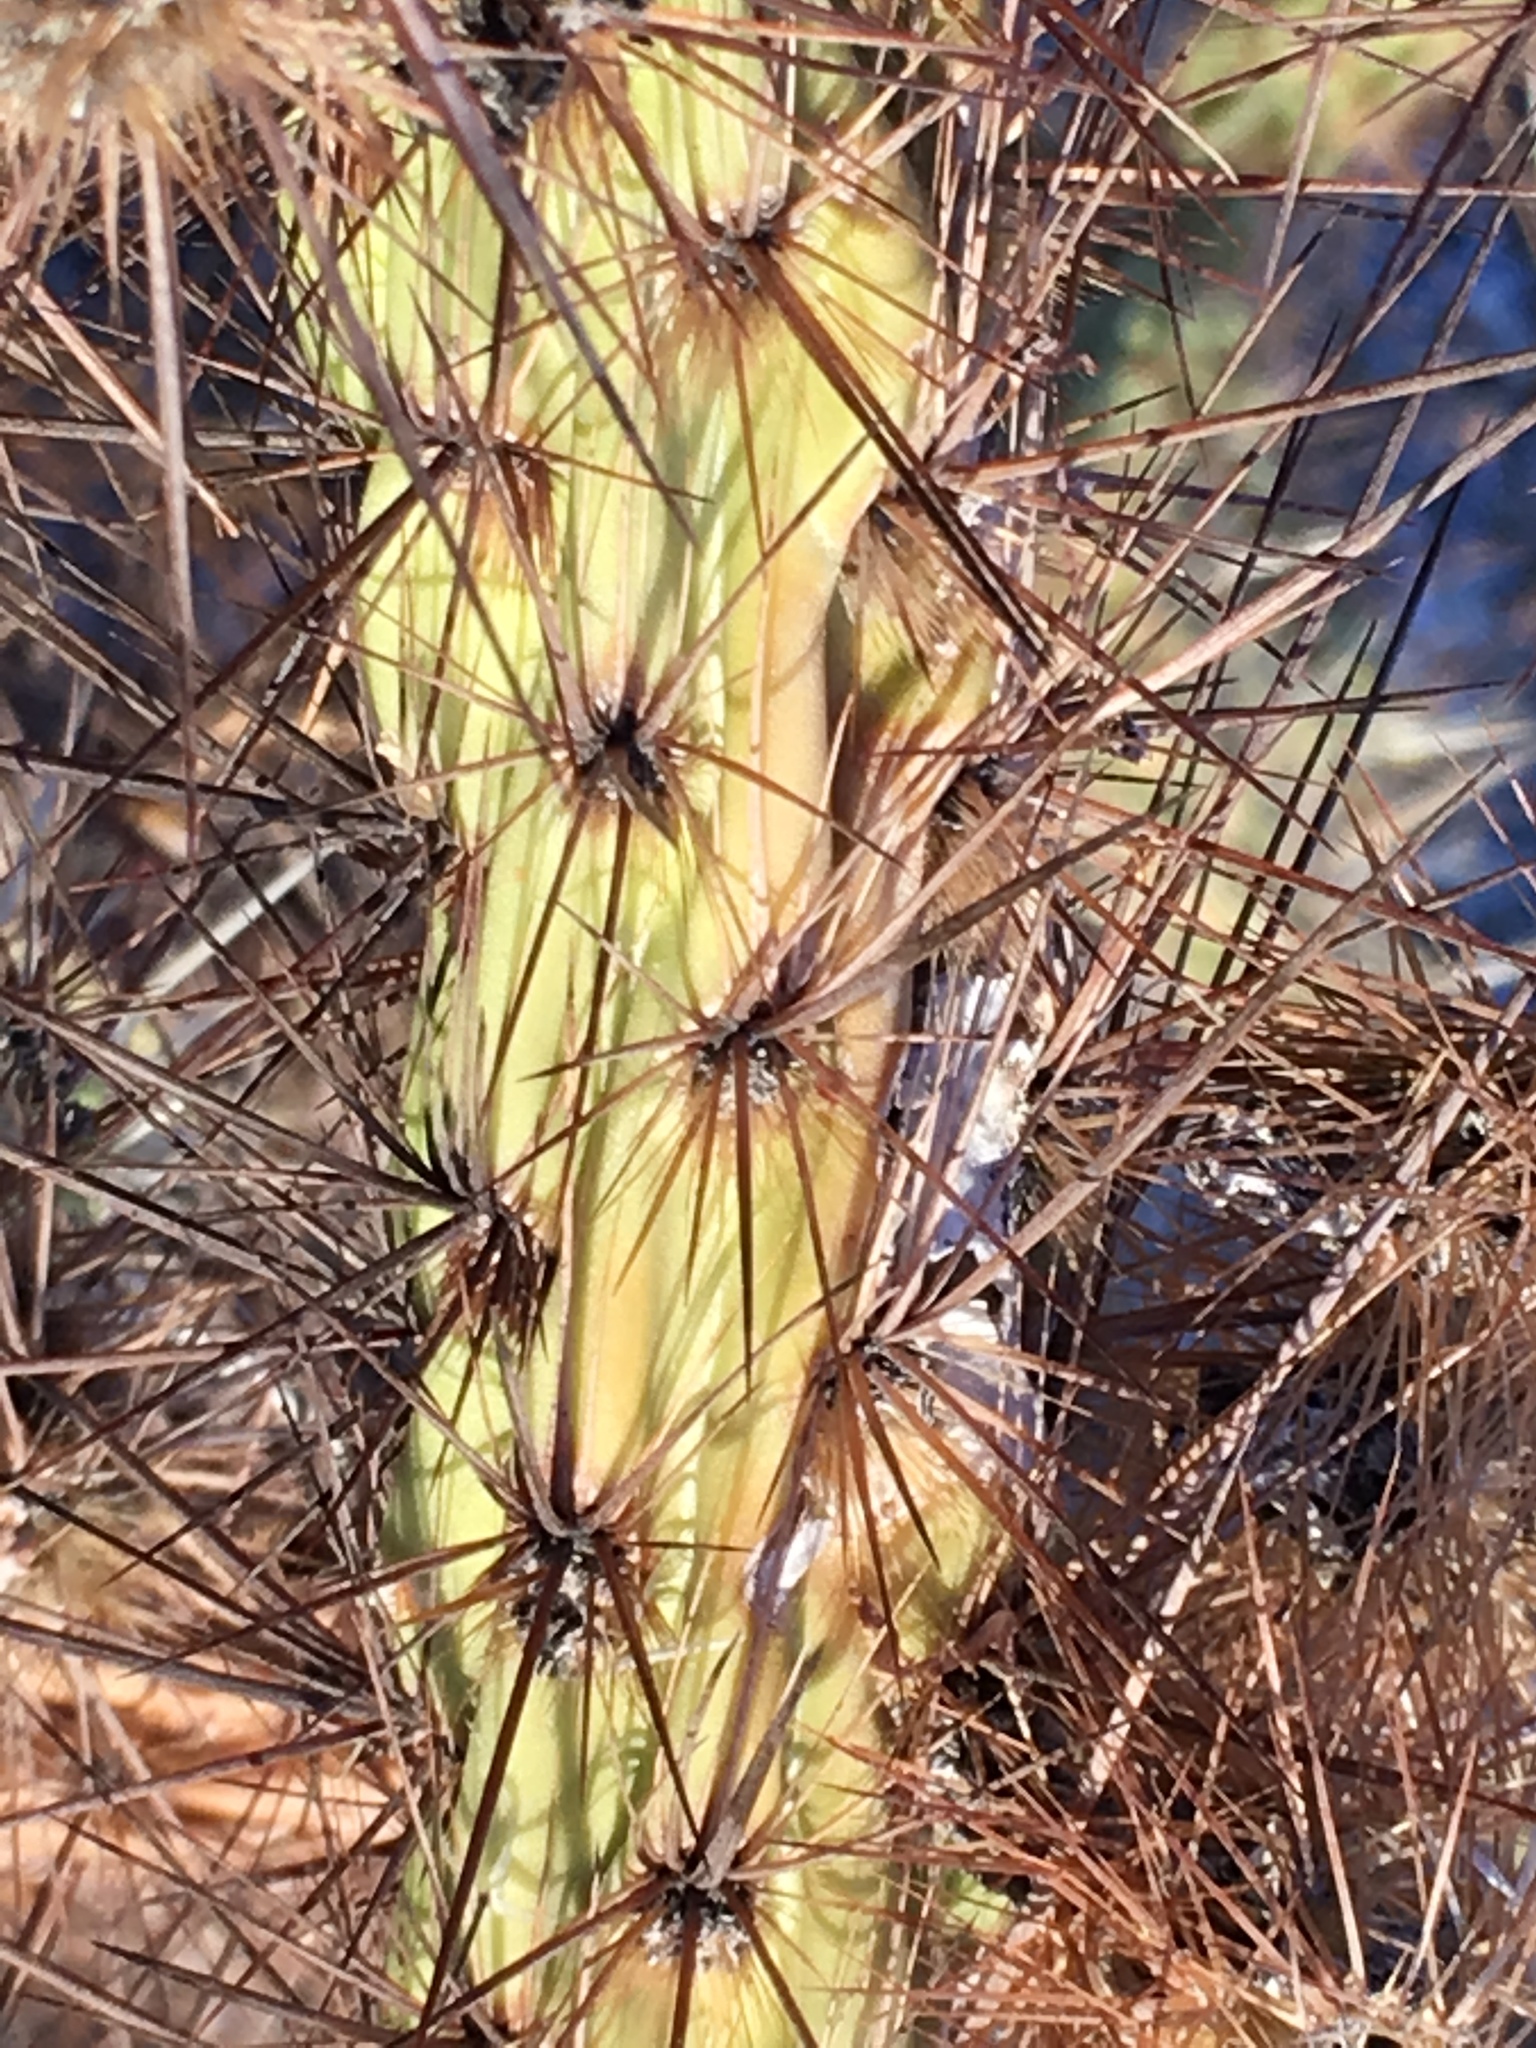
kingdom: Plantae
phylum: Tracheophyta
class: Magnoliopsida
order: Caryophyllales
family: Cactaceae
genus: Cylindropuntia
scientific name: Cylindropuntia ganderi
